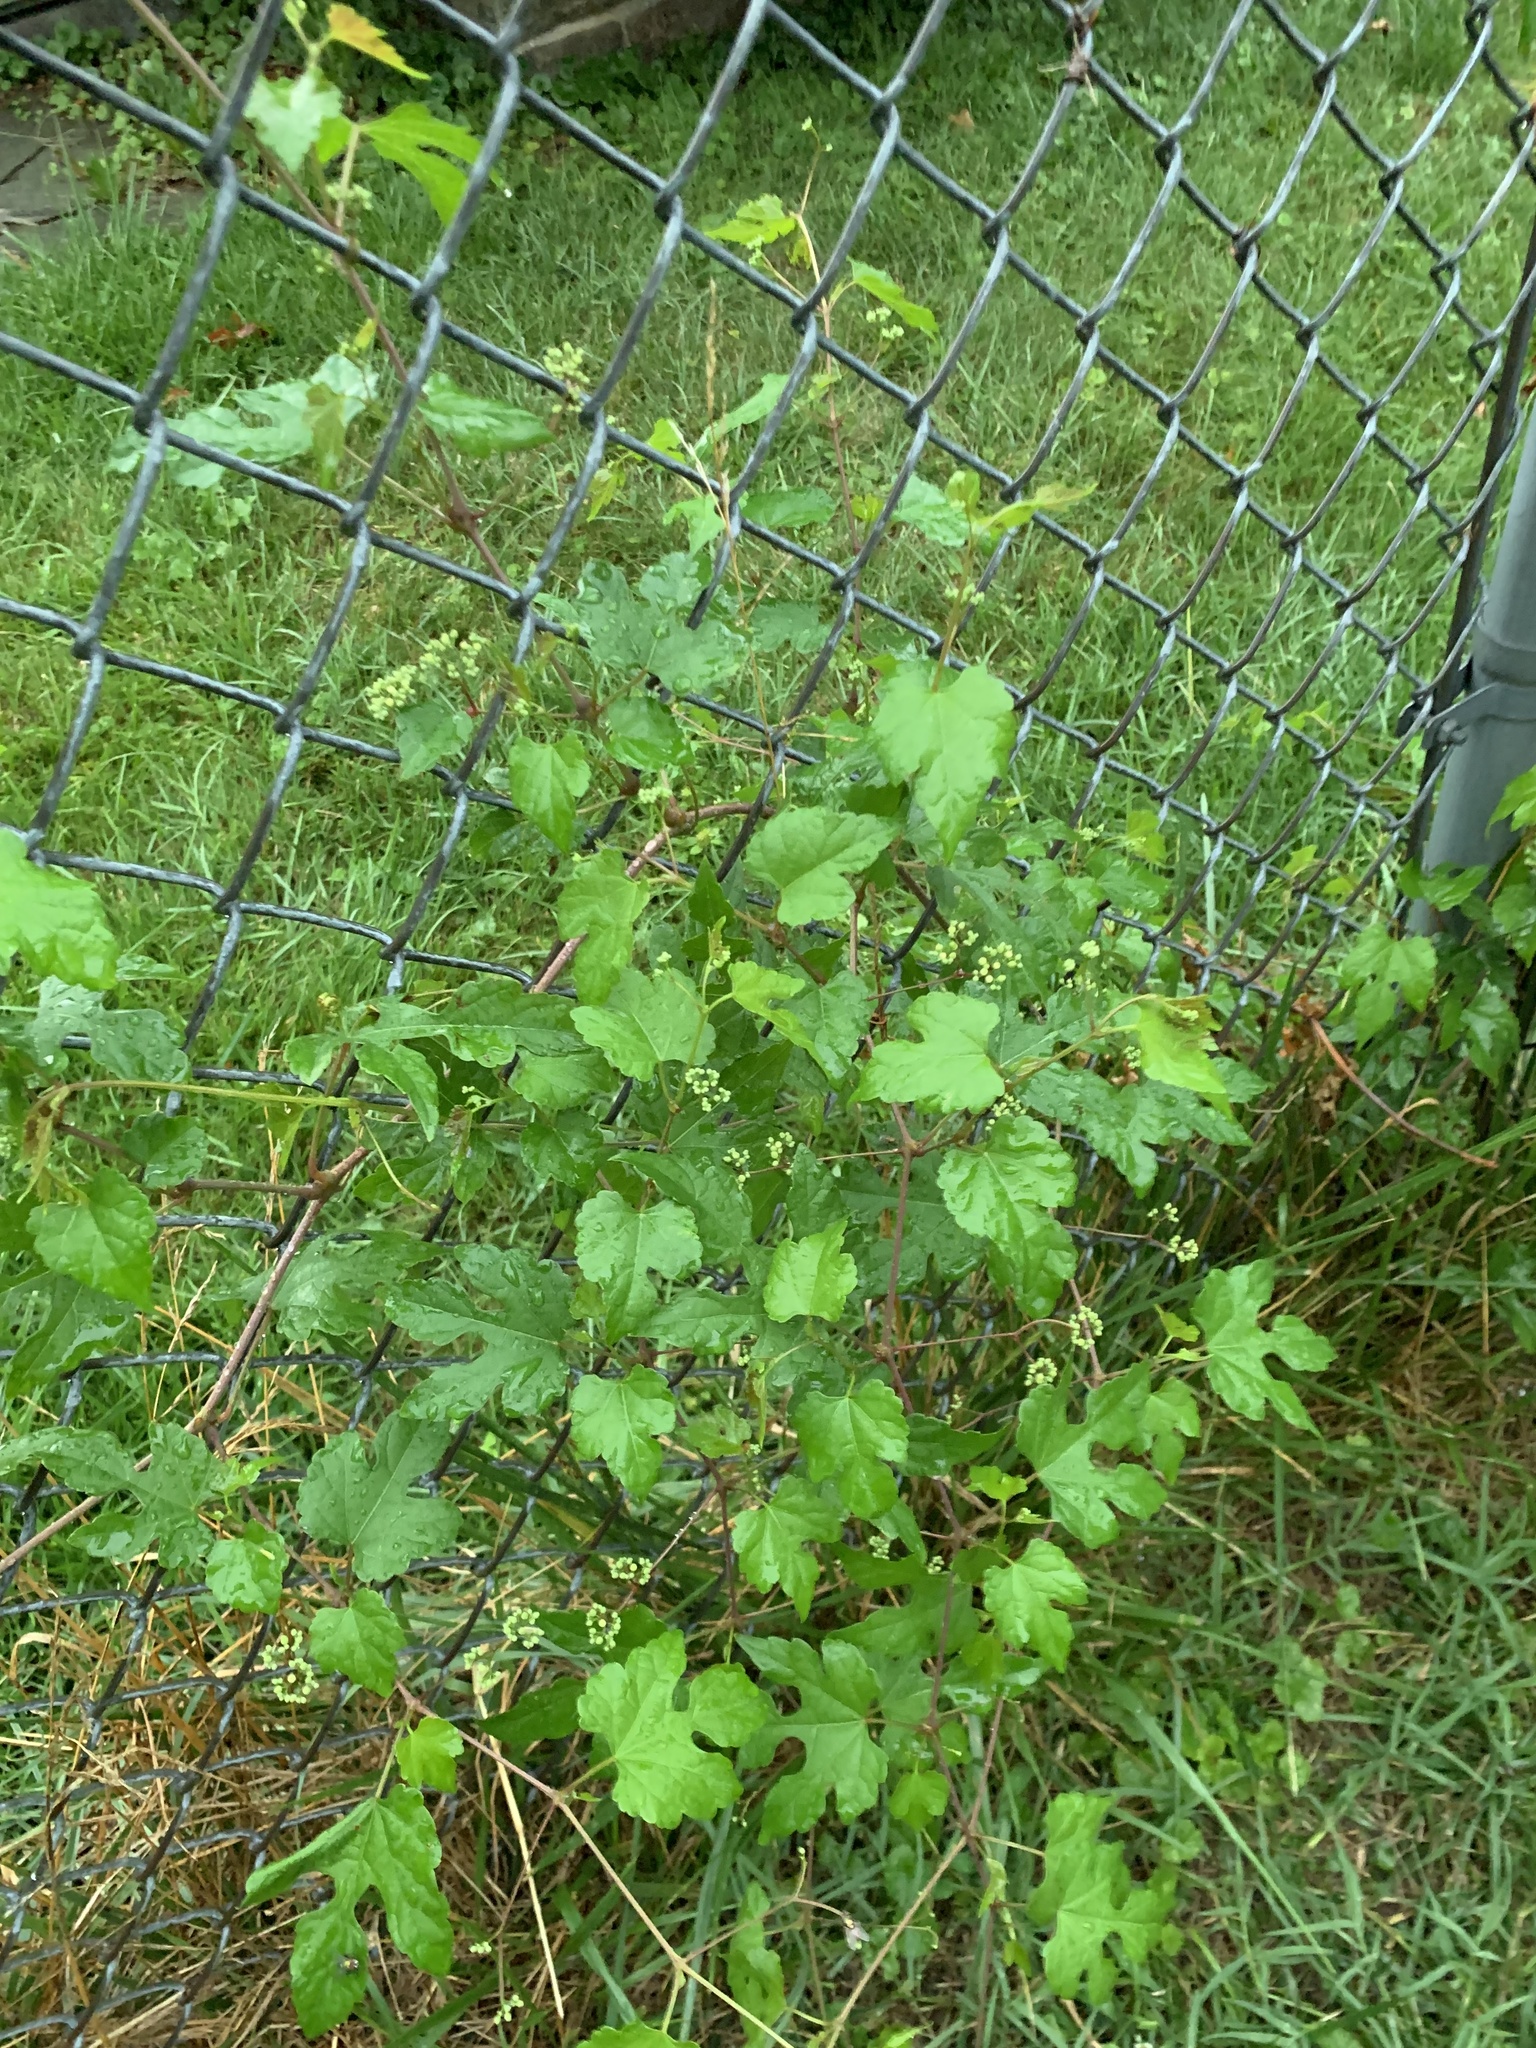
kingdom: Plantae
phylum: Tracheophyta
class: Magnoliopsida
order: Vitales
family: Vitaceae
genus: Ampelopsis
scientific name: Ampelopsis glandulosa
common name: Amur peppervine
